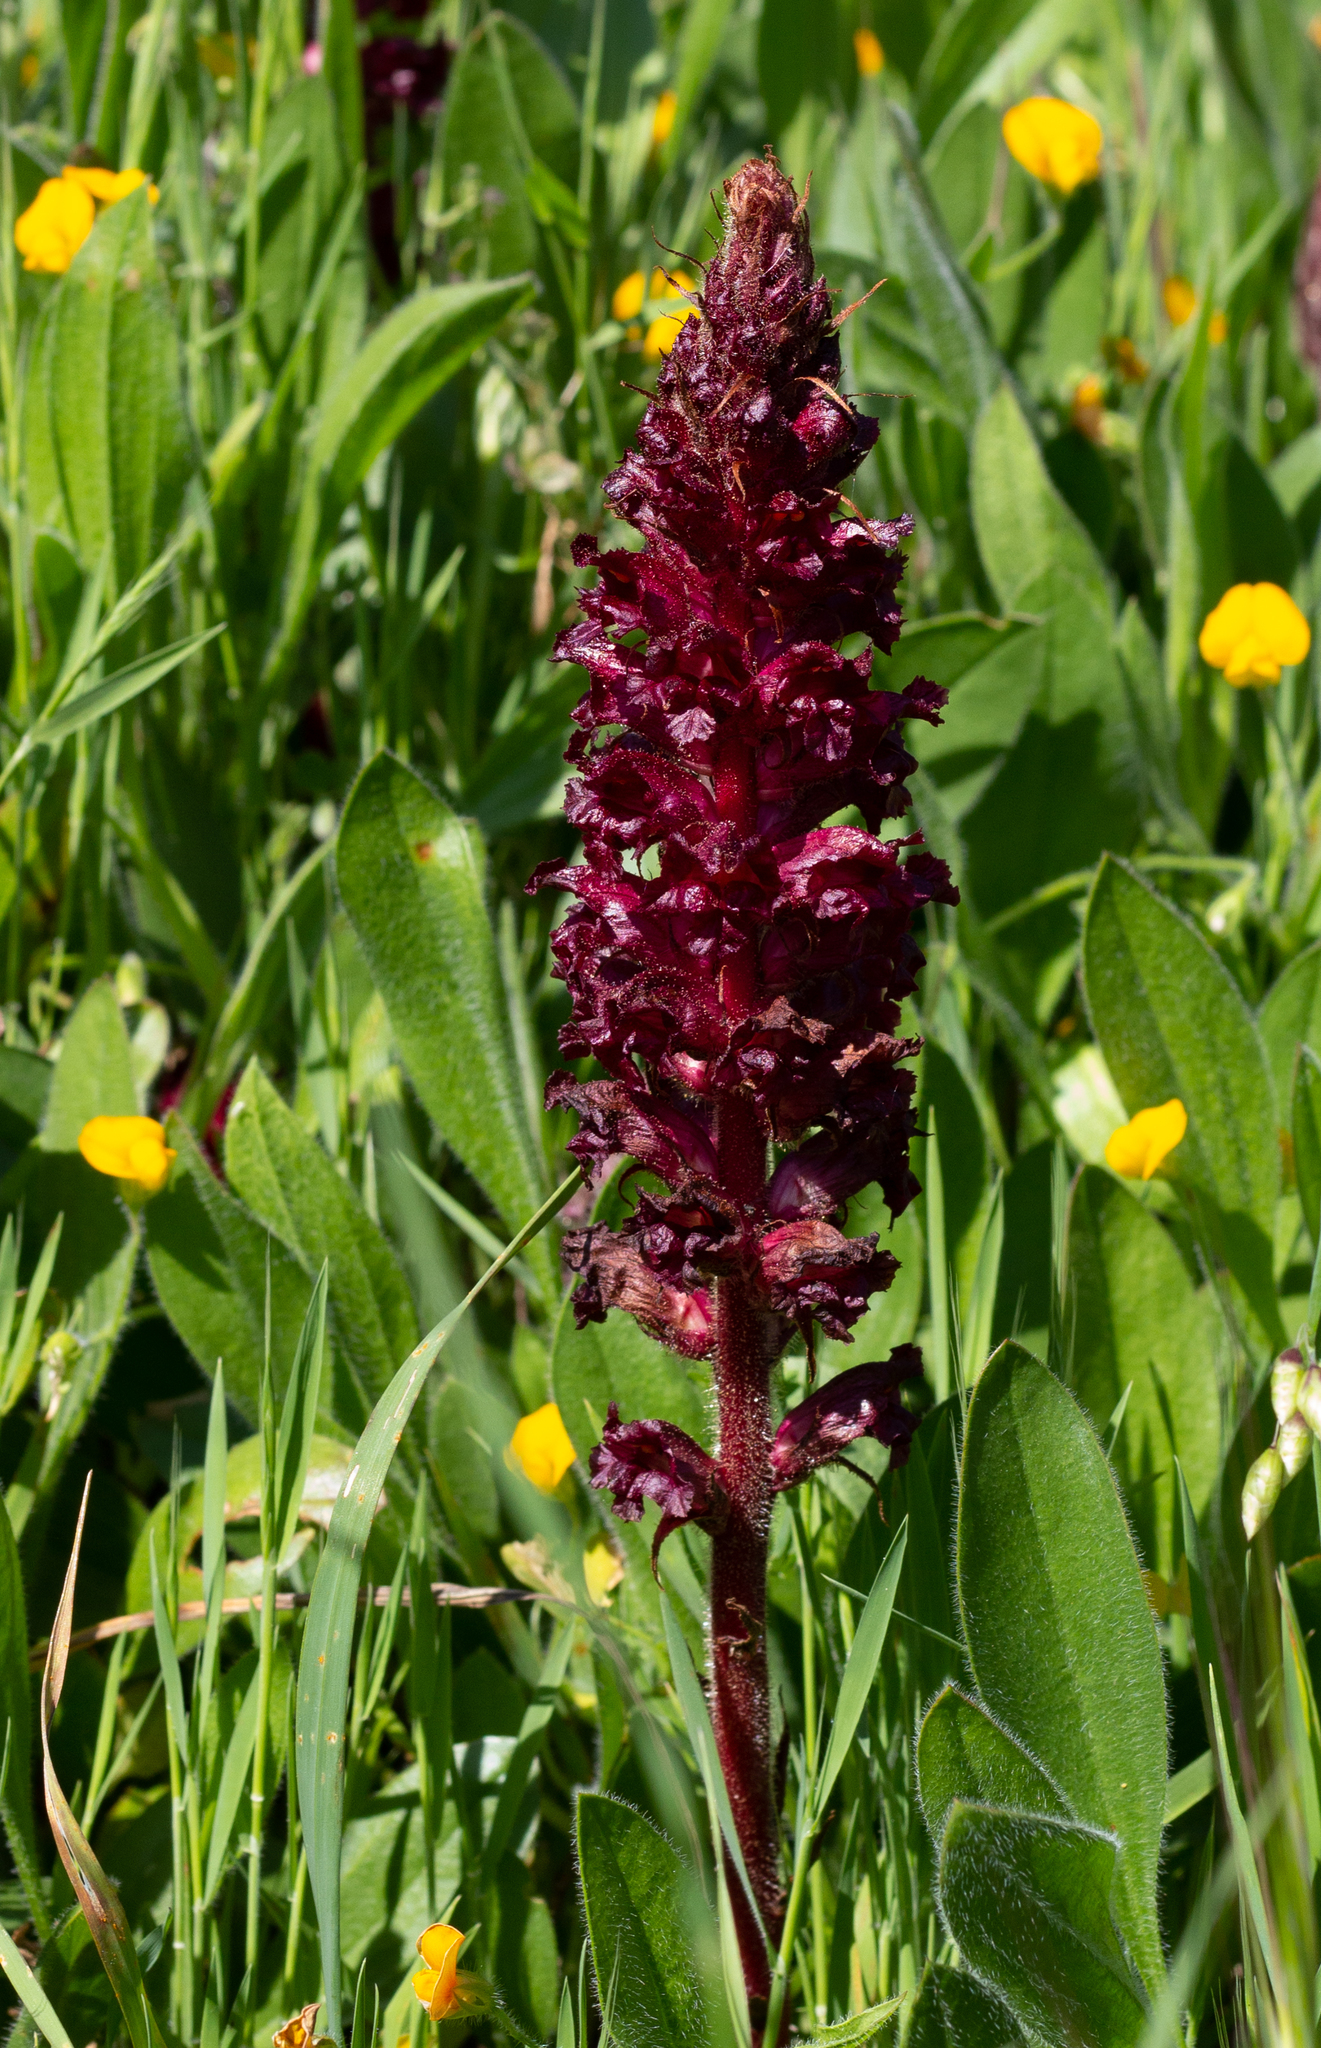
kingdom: Plantae
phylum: Tracheophyta
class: Magnoliopsida
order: Lamiales
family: Orobanchaceae
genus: Orobanche
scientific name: Orobanche foetida
